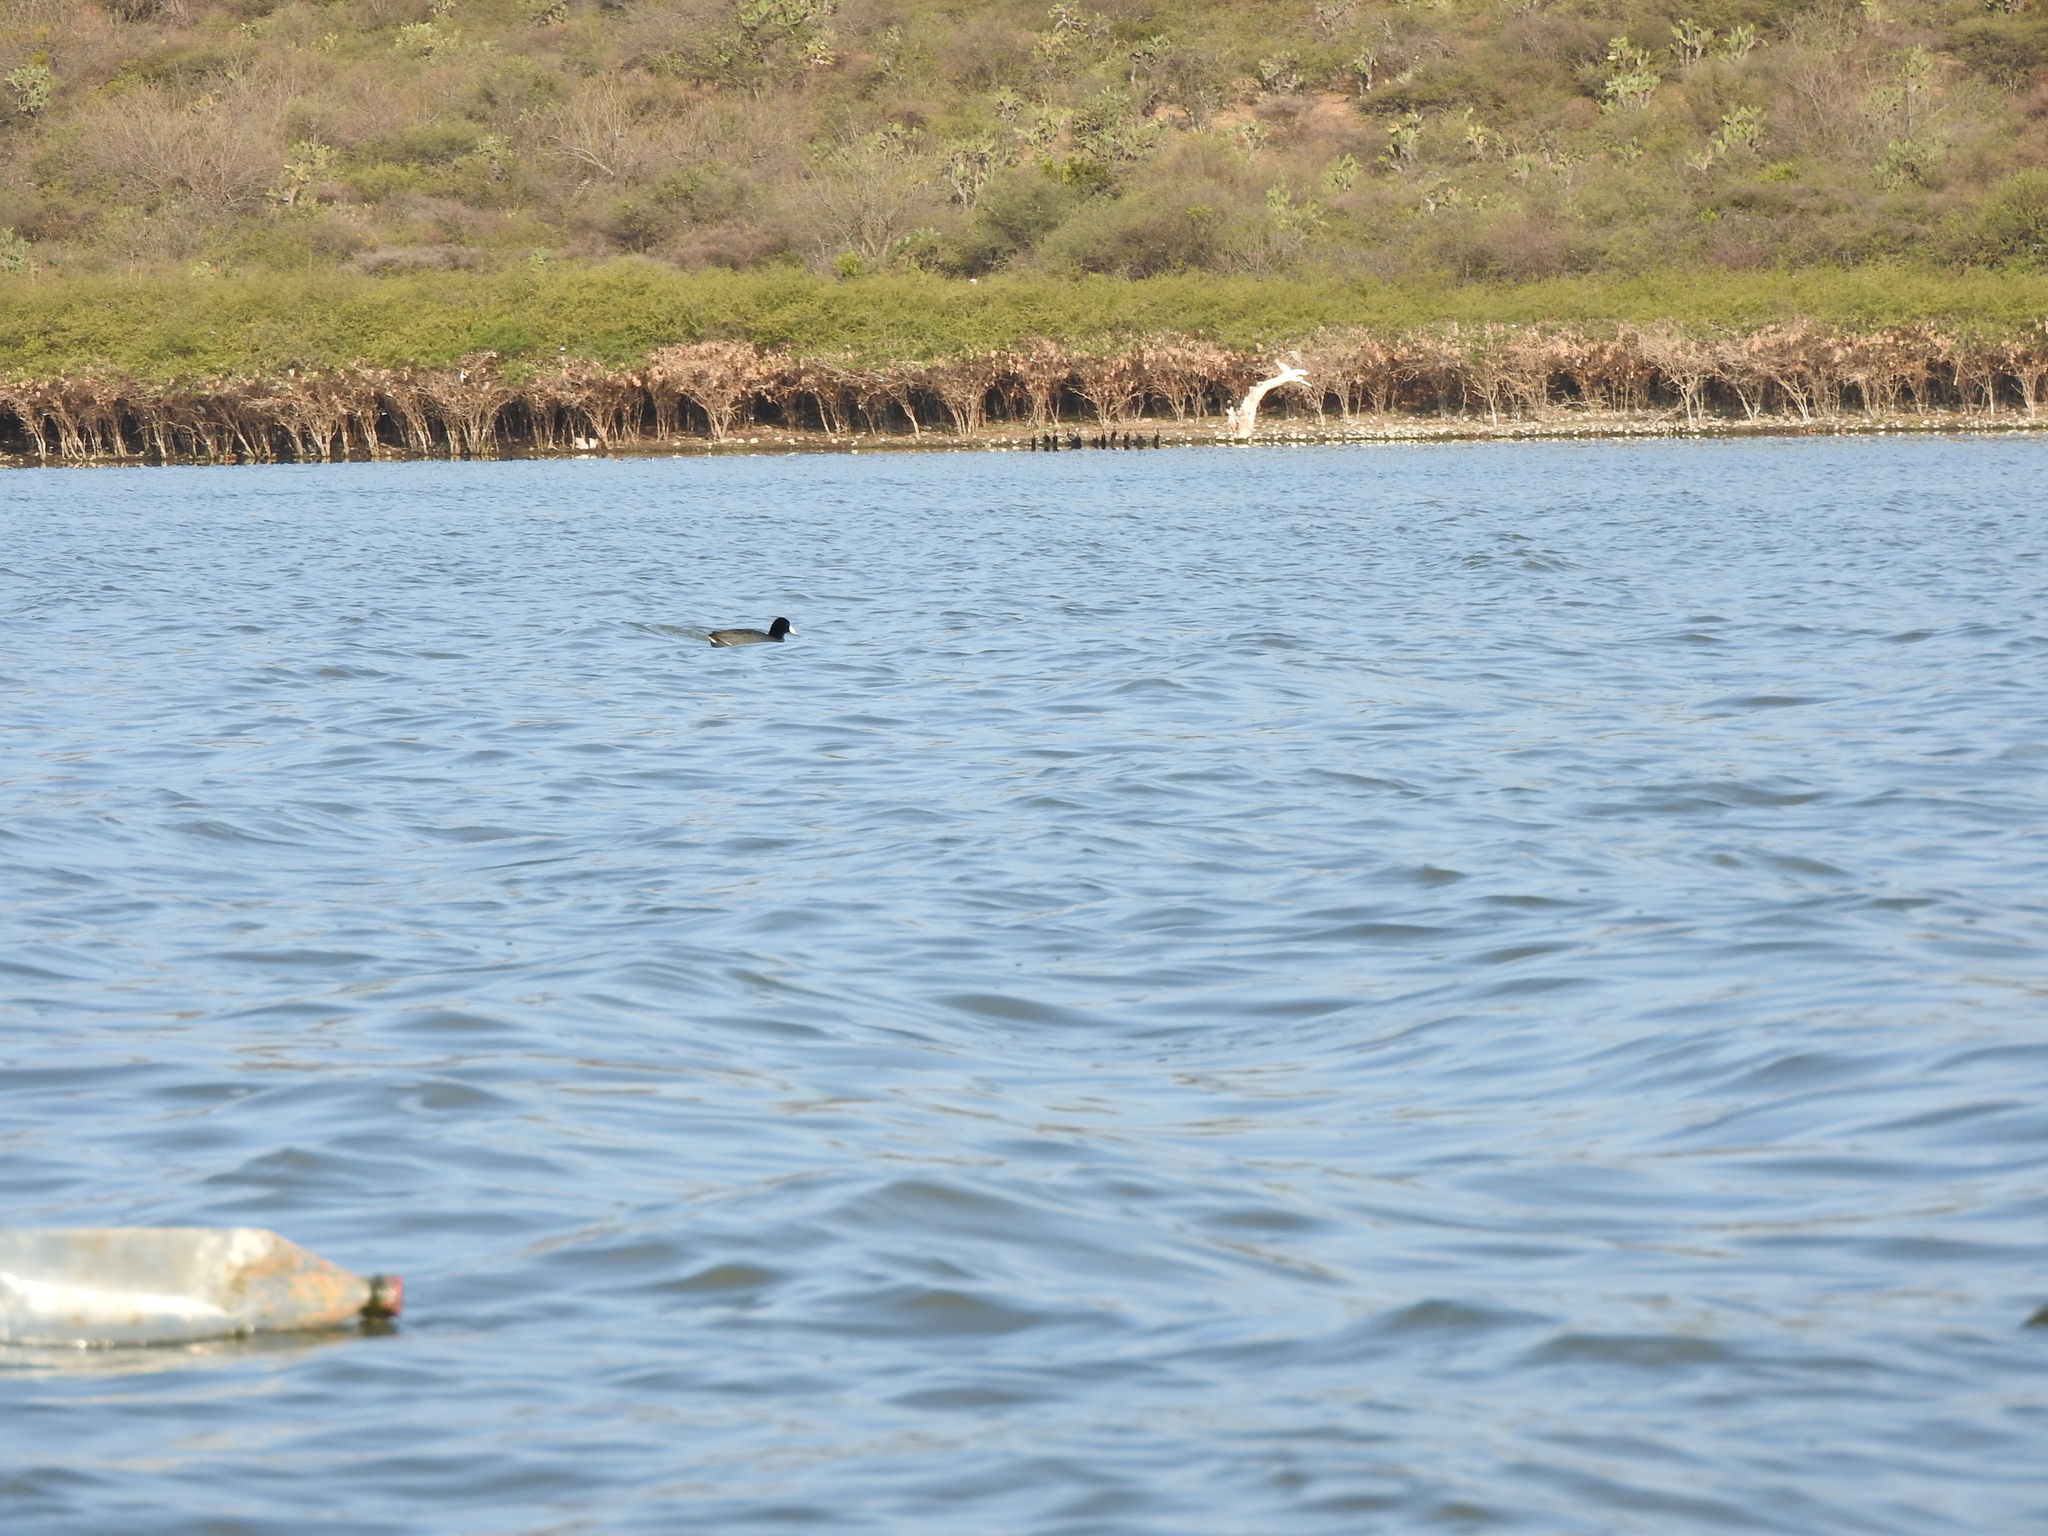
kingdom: Animalia
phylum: Chordata
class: Aves
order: Gruiformes
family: Rallidae
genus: Fulica
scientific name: Fulica americana
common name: American coot
